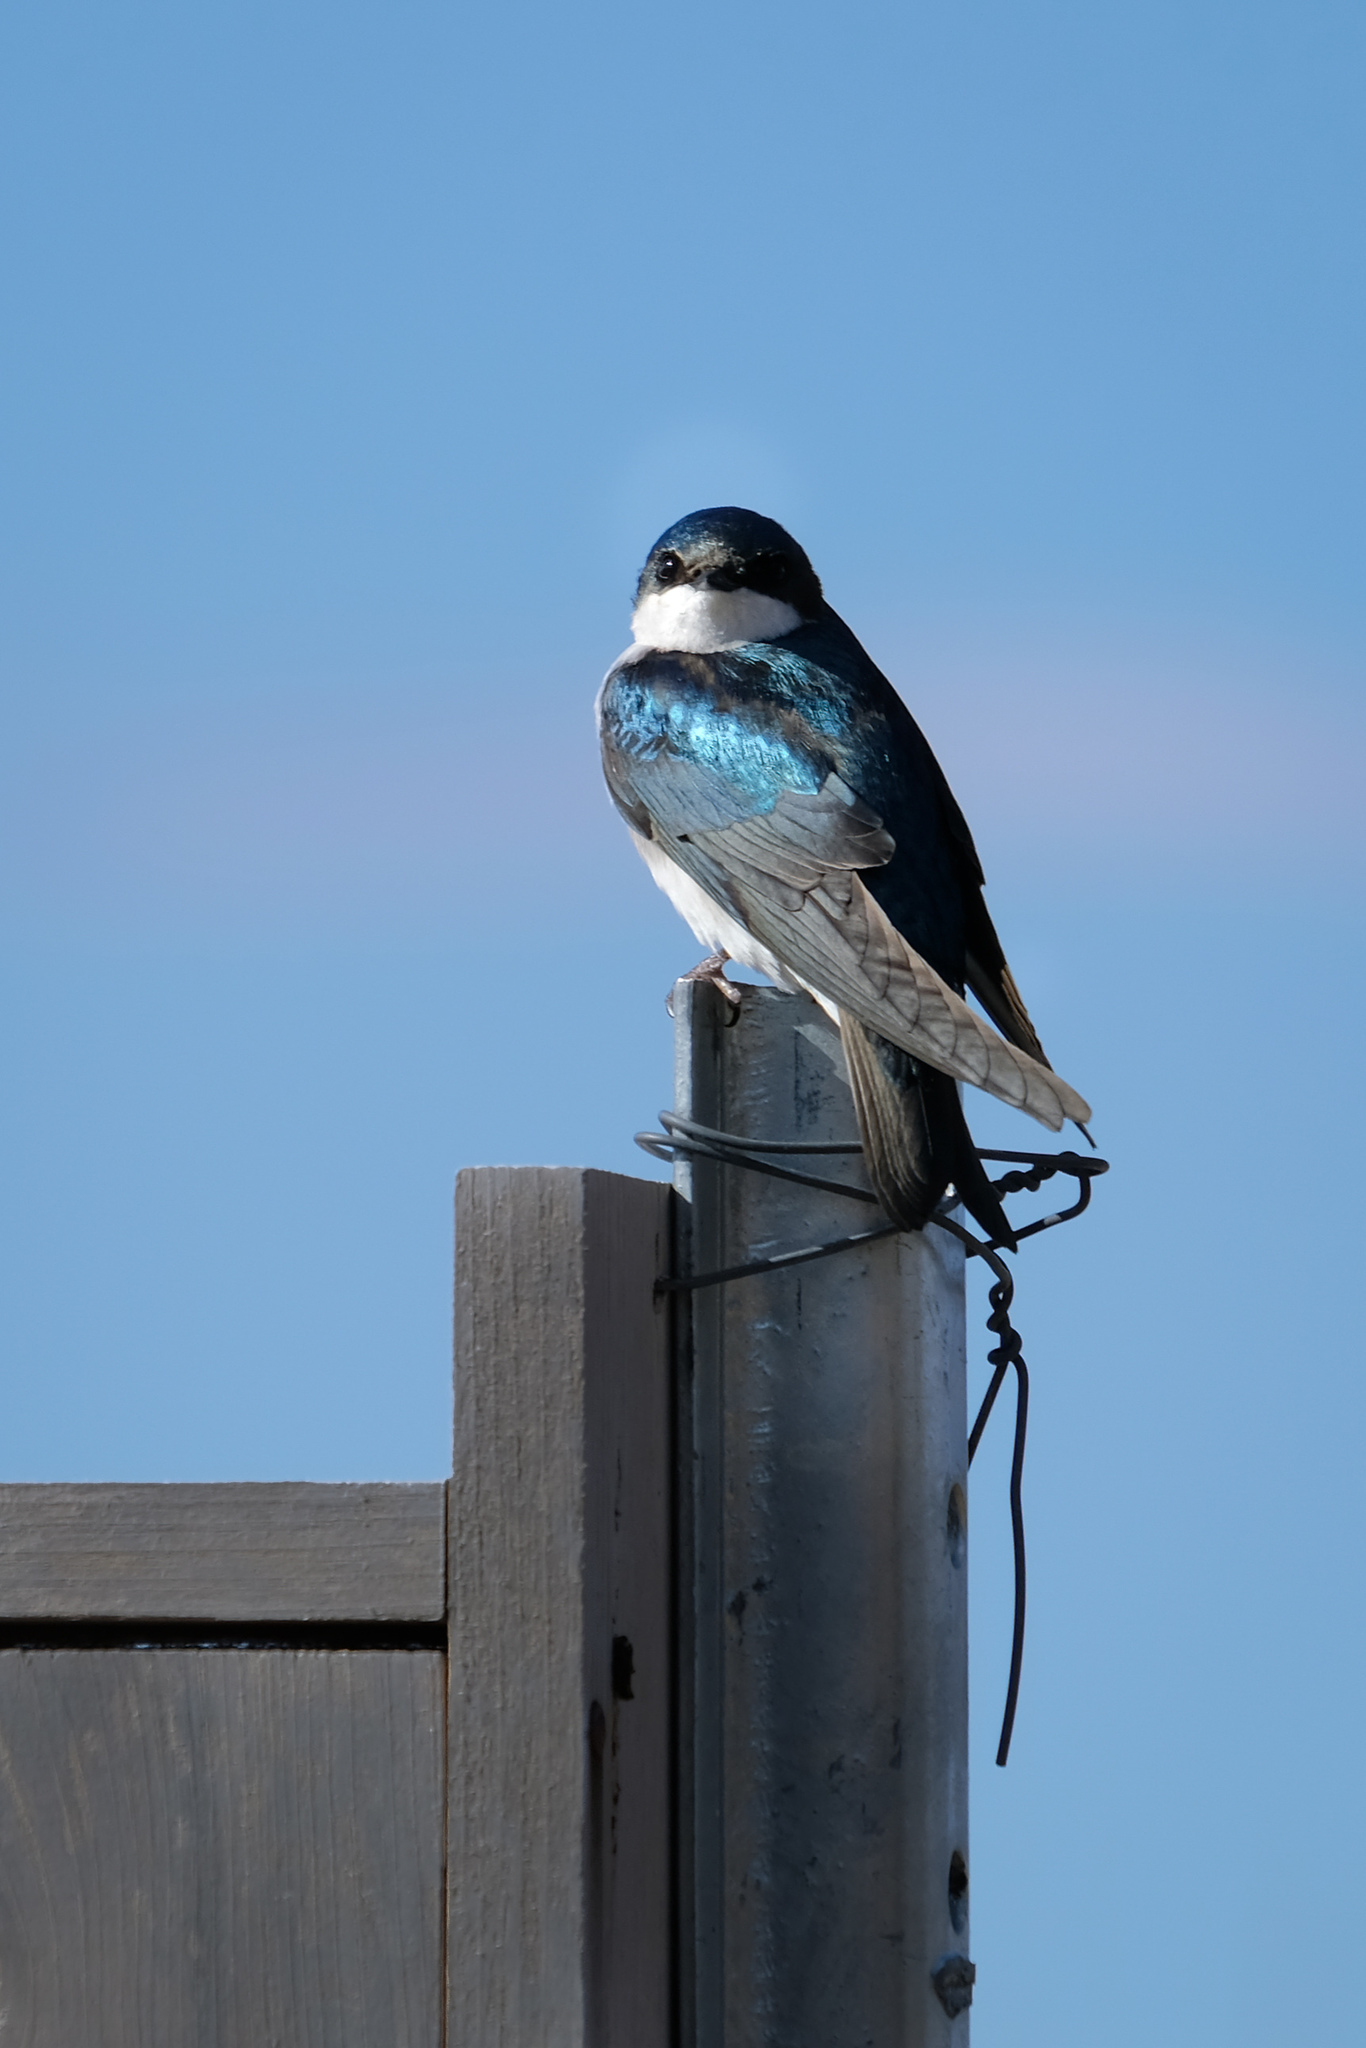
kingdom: Animalia
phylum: Chordata
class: Aves
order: Passeriformes
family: Hirundinidae
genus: Tachycineta
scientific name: Tachycineta bicolor
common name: Tree swallow
